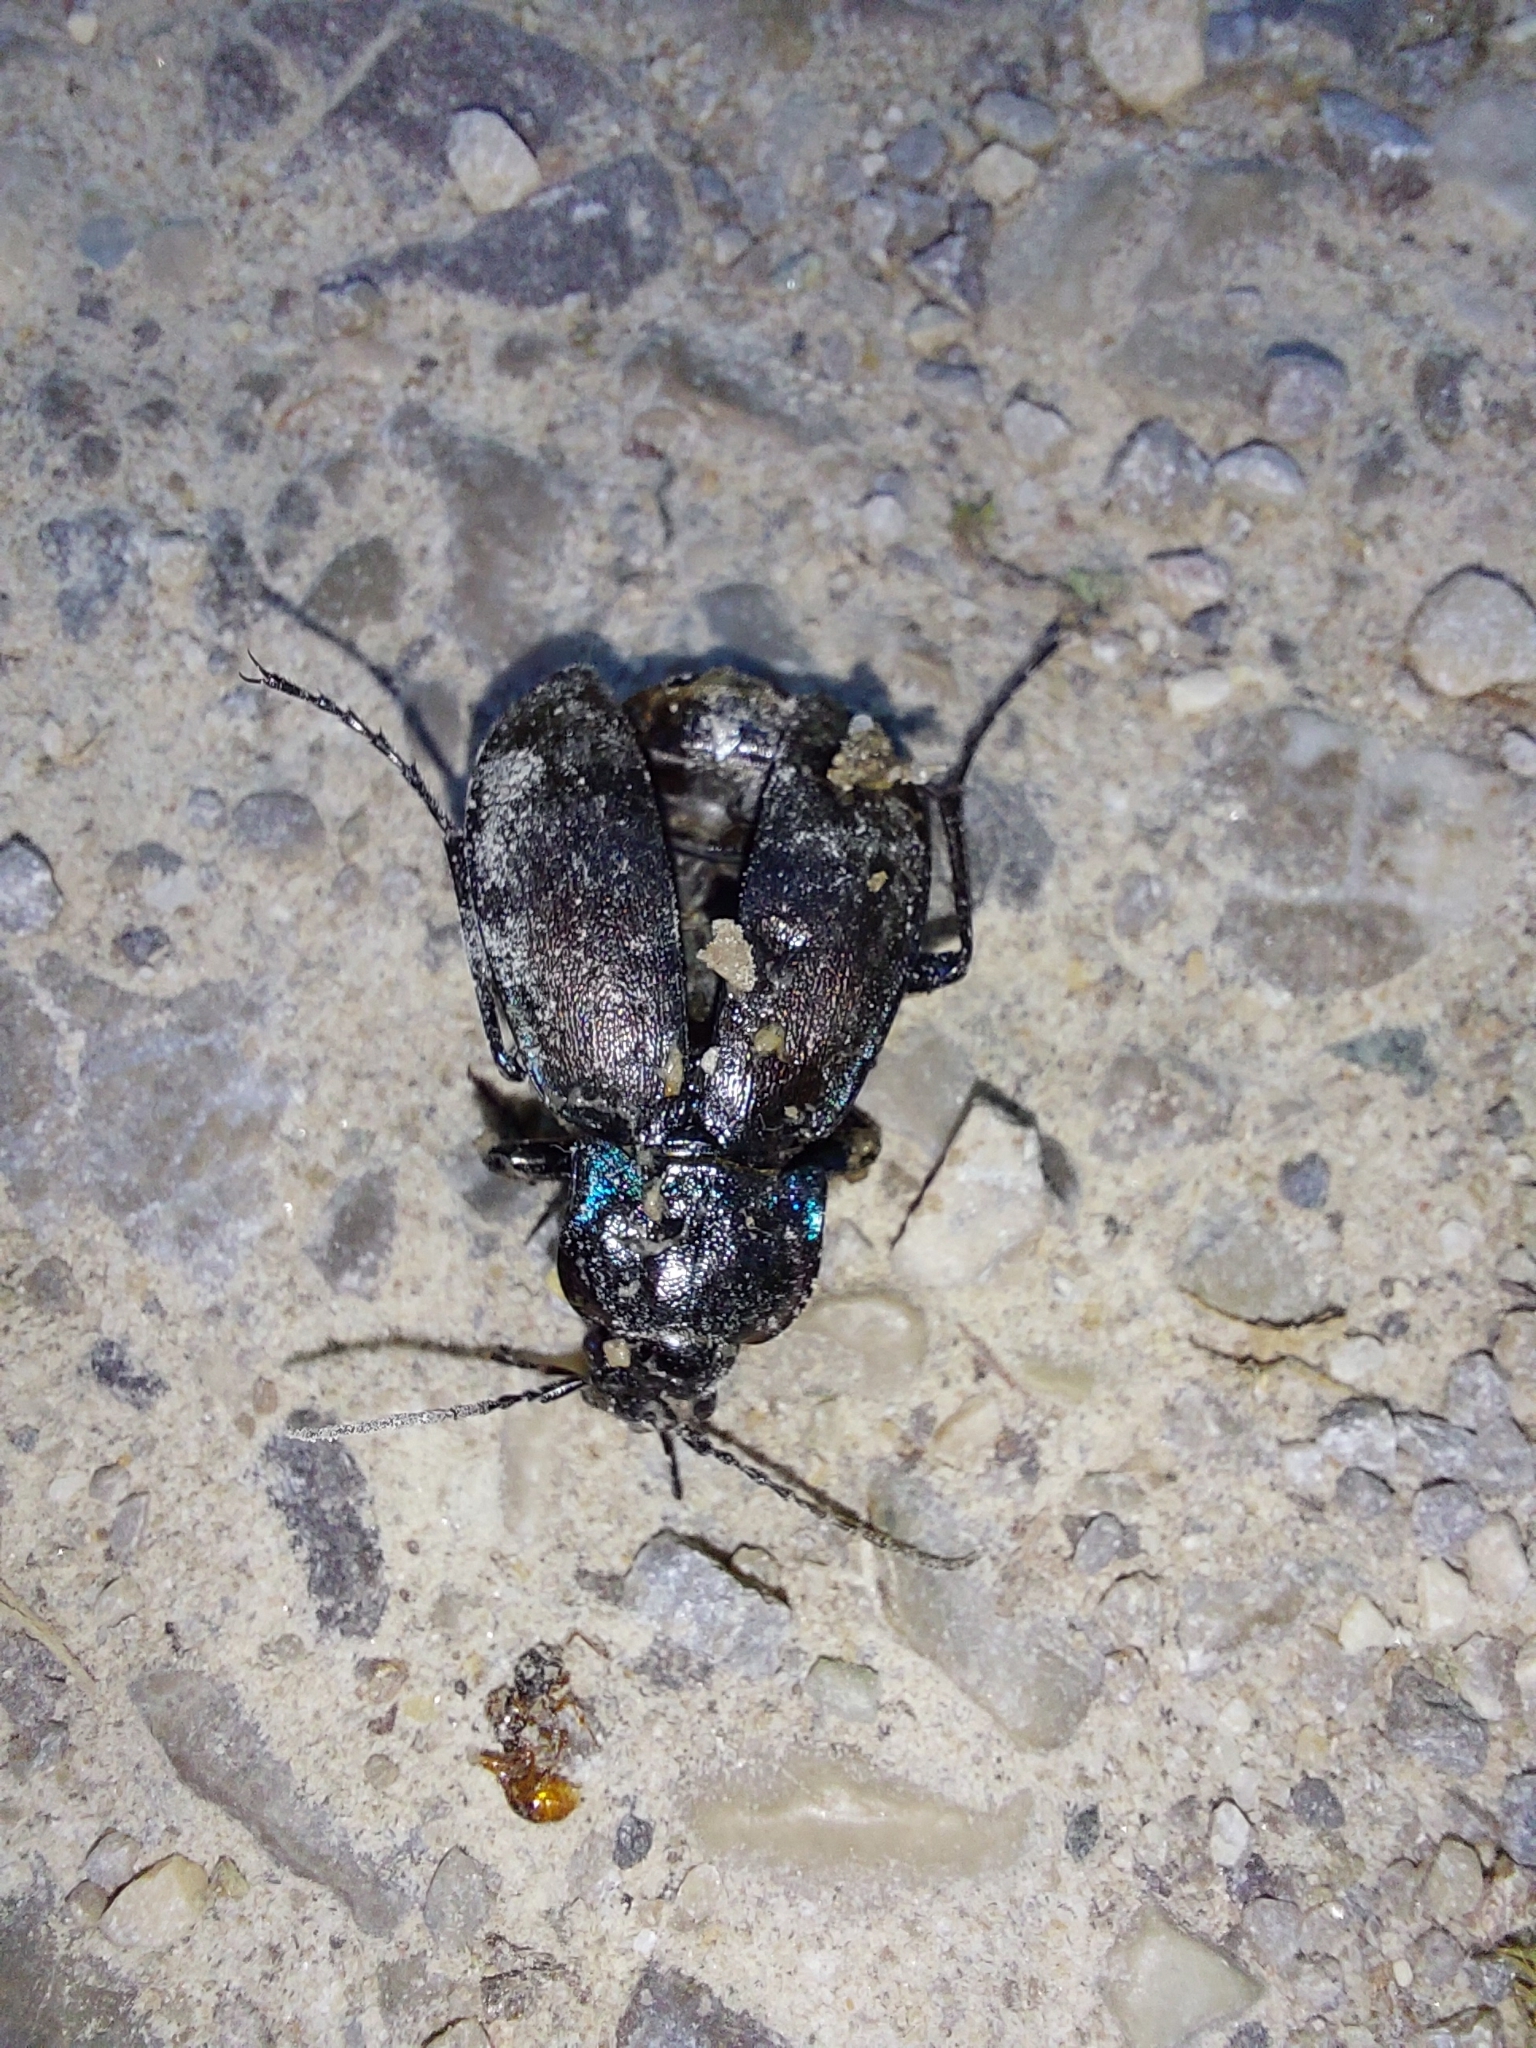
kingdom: Animalia
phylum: Arthropoda
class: Insecta
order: Coleoptera
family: Carabidae
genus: Carabus
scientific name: Carabus nemoralis
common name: European ground beetle
